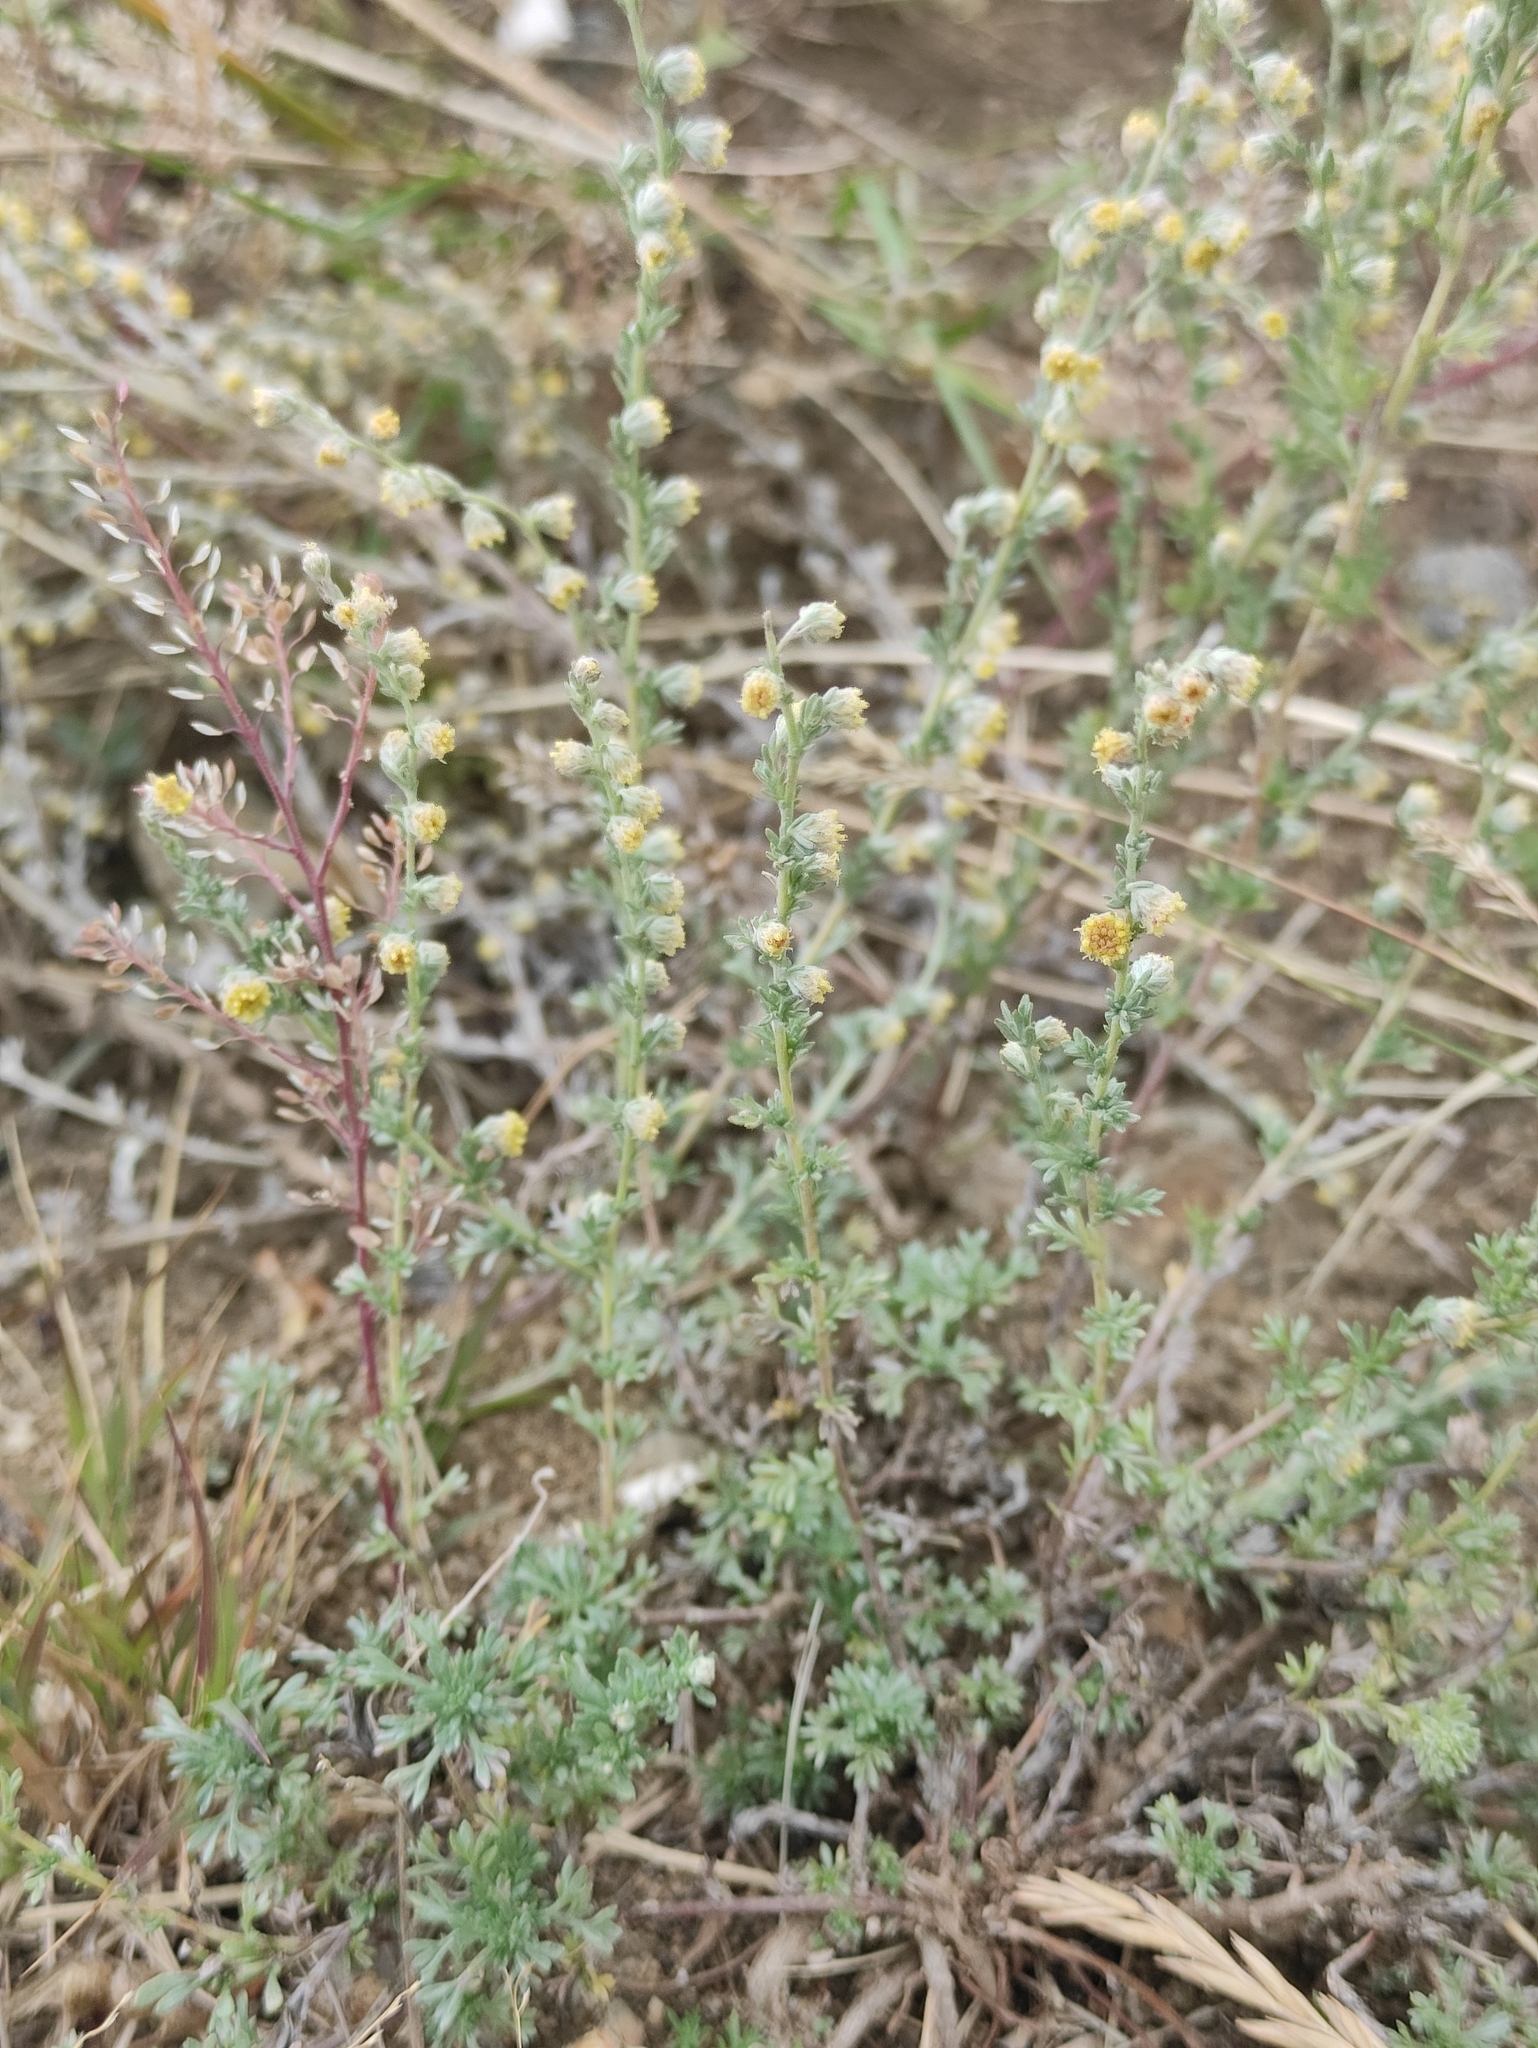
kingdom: Plantae
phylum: Tracheophyta
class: Magnoliopsida
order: Asterales
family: Asteraceae
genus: Artemisia
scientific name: Artemisia frigida
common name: Prairie sagewort
